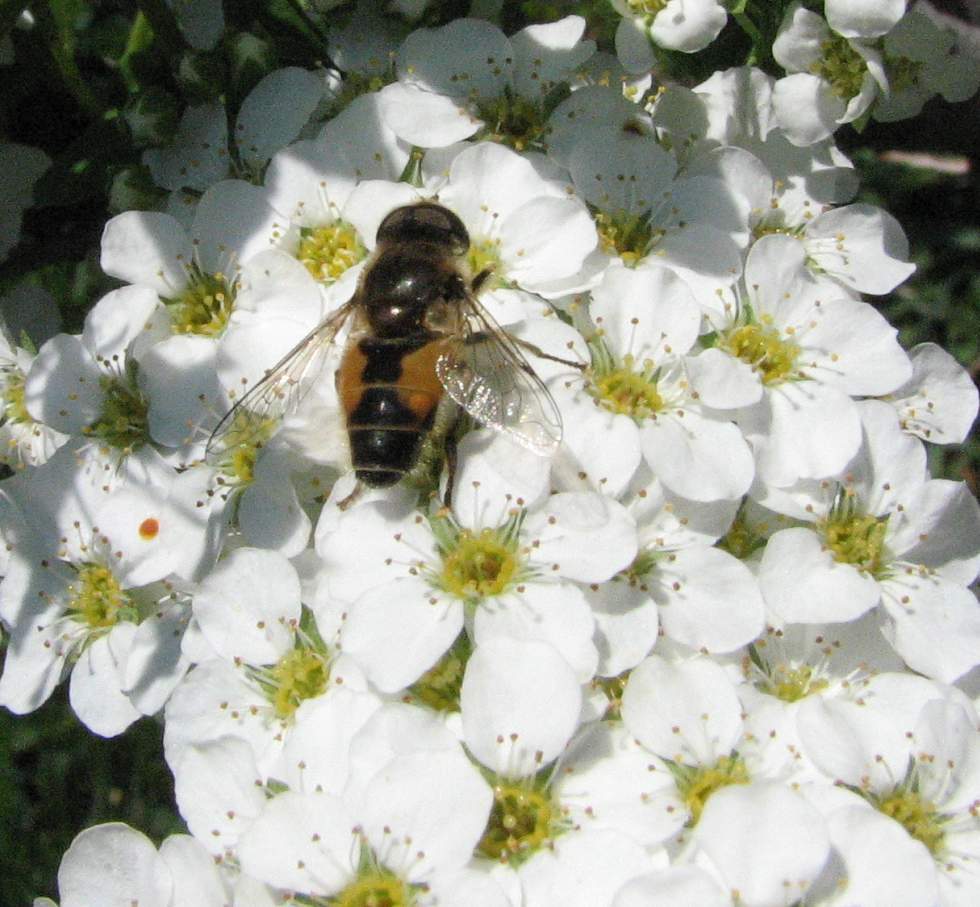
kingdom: Animalia
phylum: Arthropoda
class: Insecta
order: Diptera
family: Syrphidae
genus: Eristalis
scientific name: Eristalis arbustorum
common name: Hover fly
